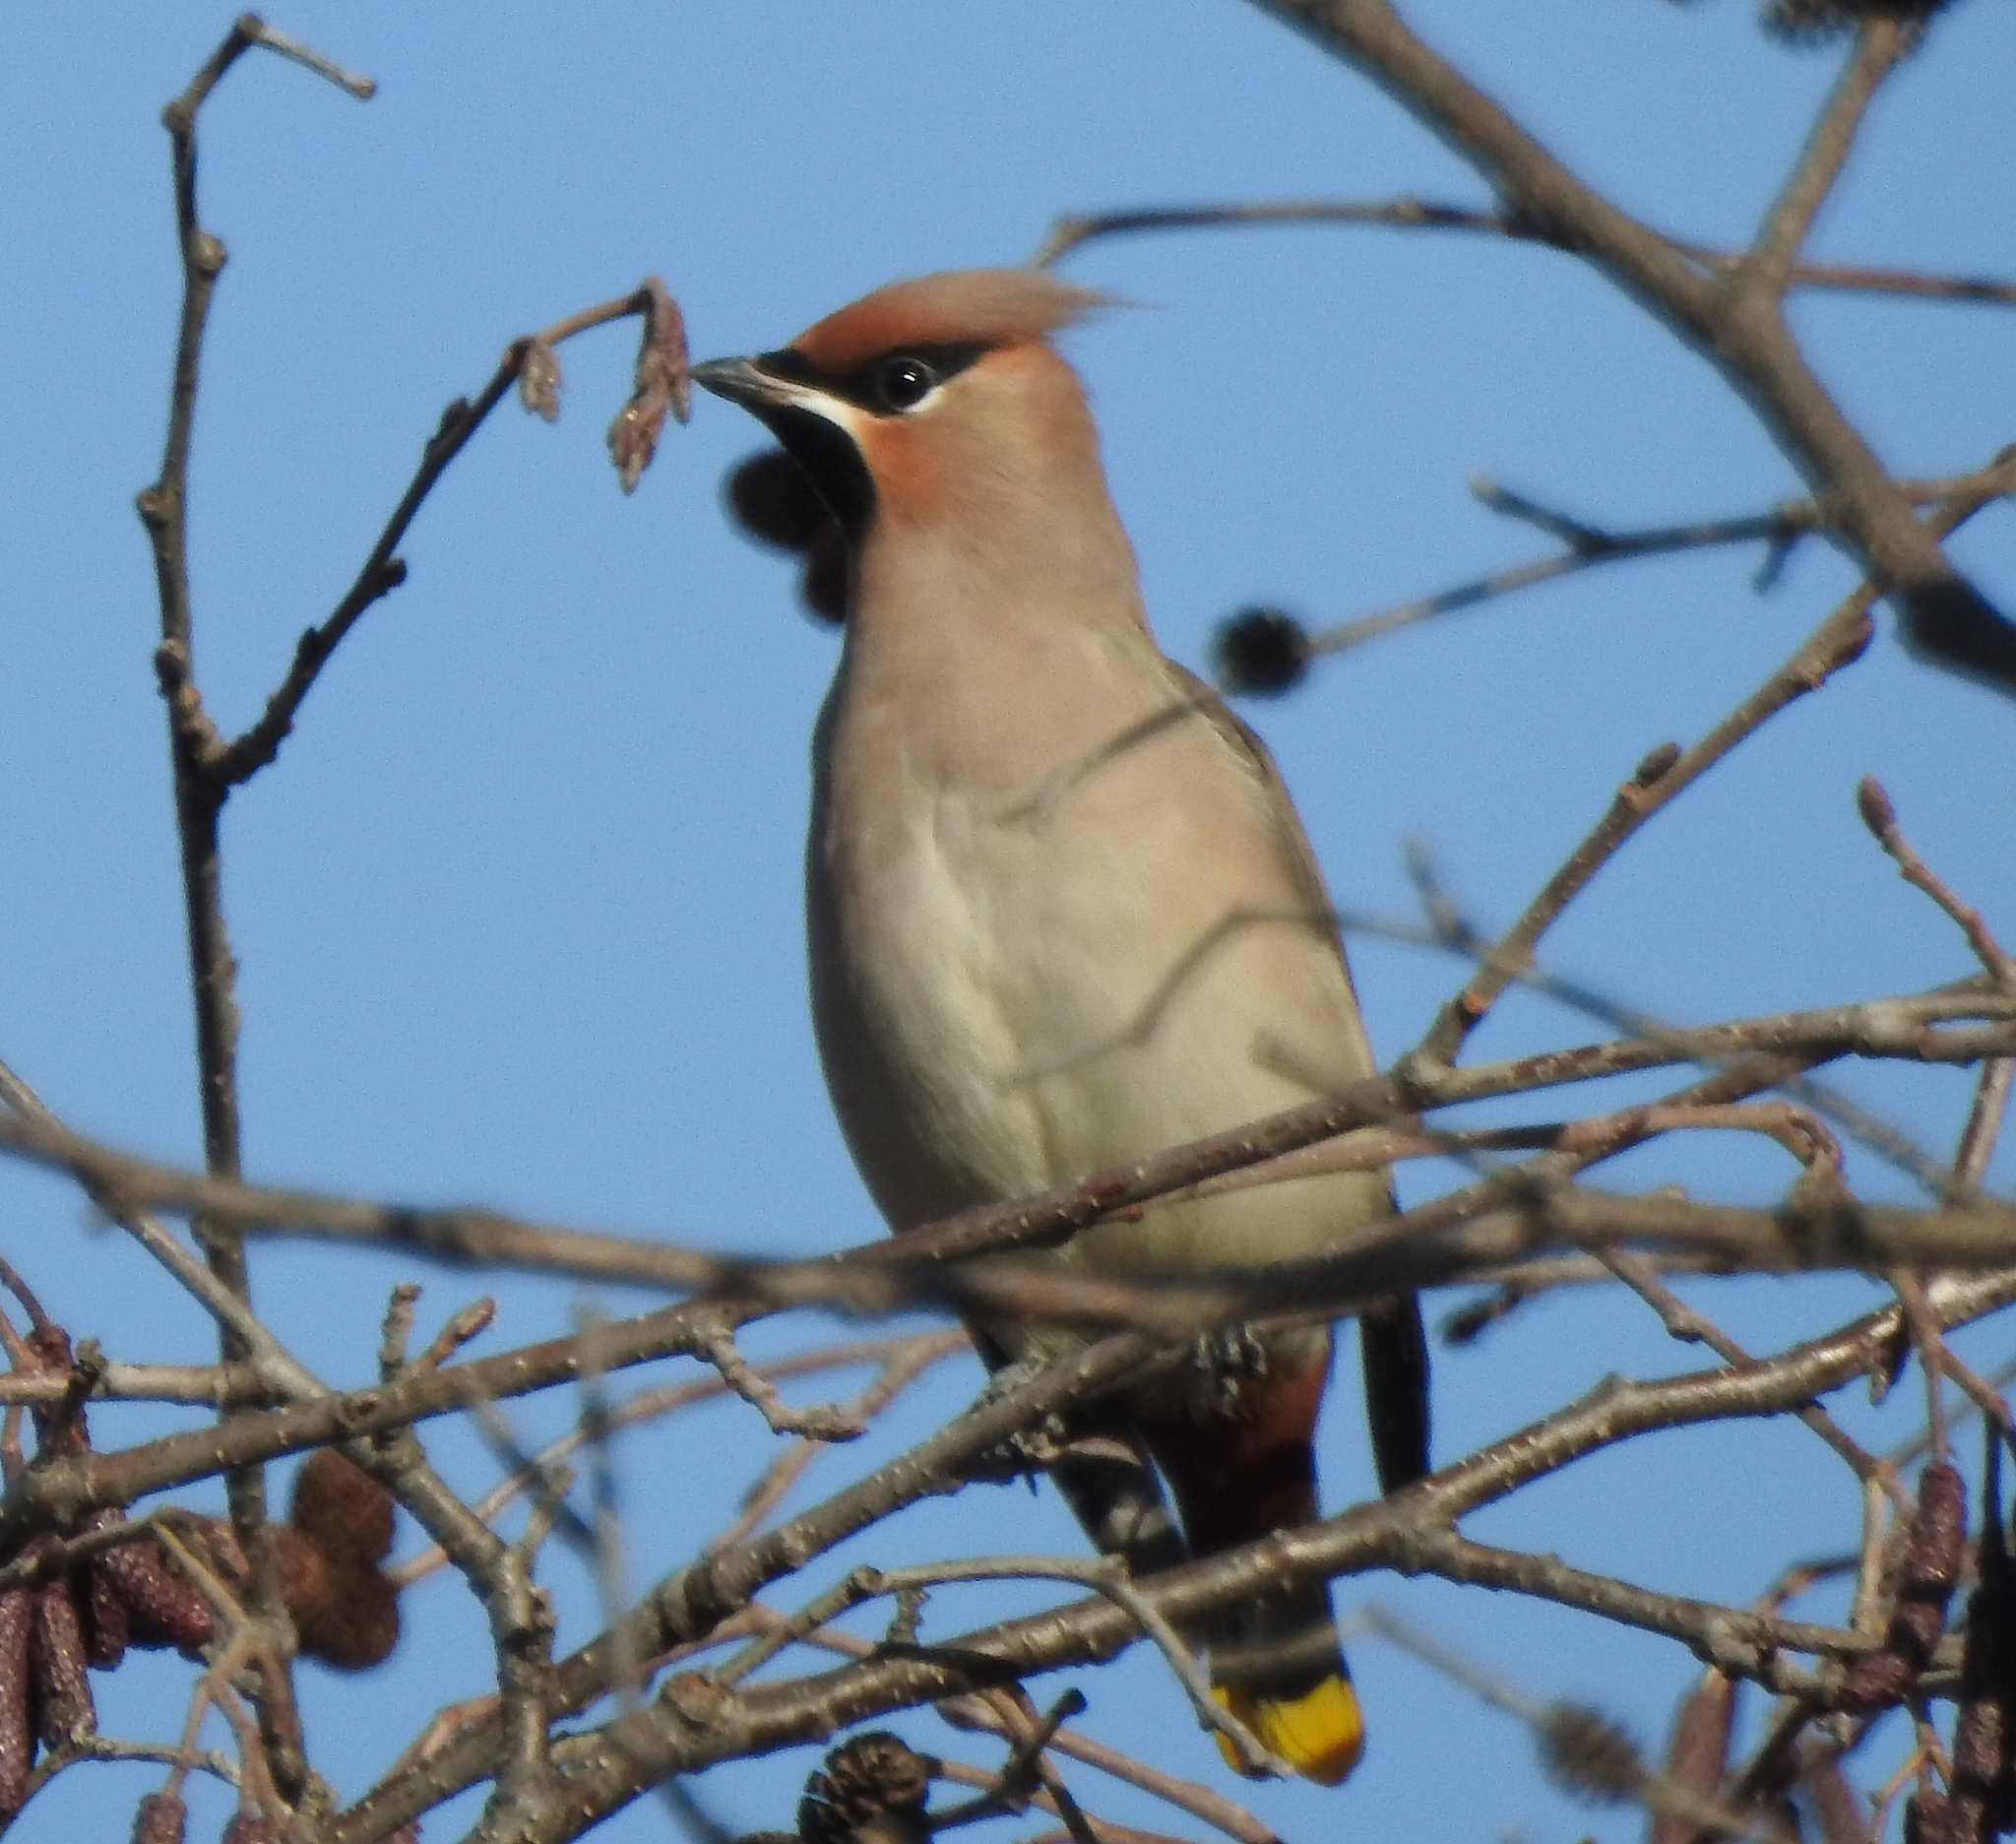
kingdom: Animalia
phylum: Chordata
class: Aves
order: Passeriformes
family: Bombycillidae
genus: Bombycilla
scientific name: Bombycilla garrulus
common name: Bohemian waxwing
